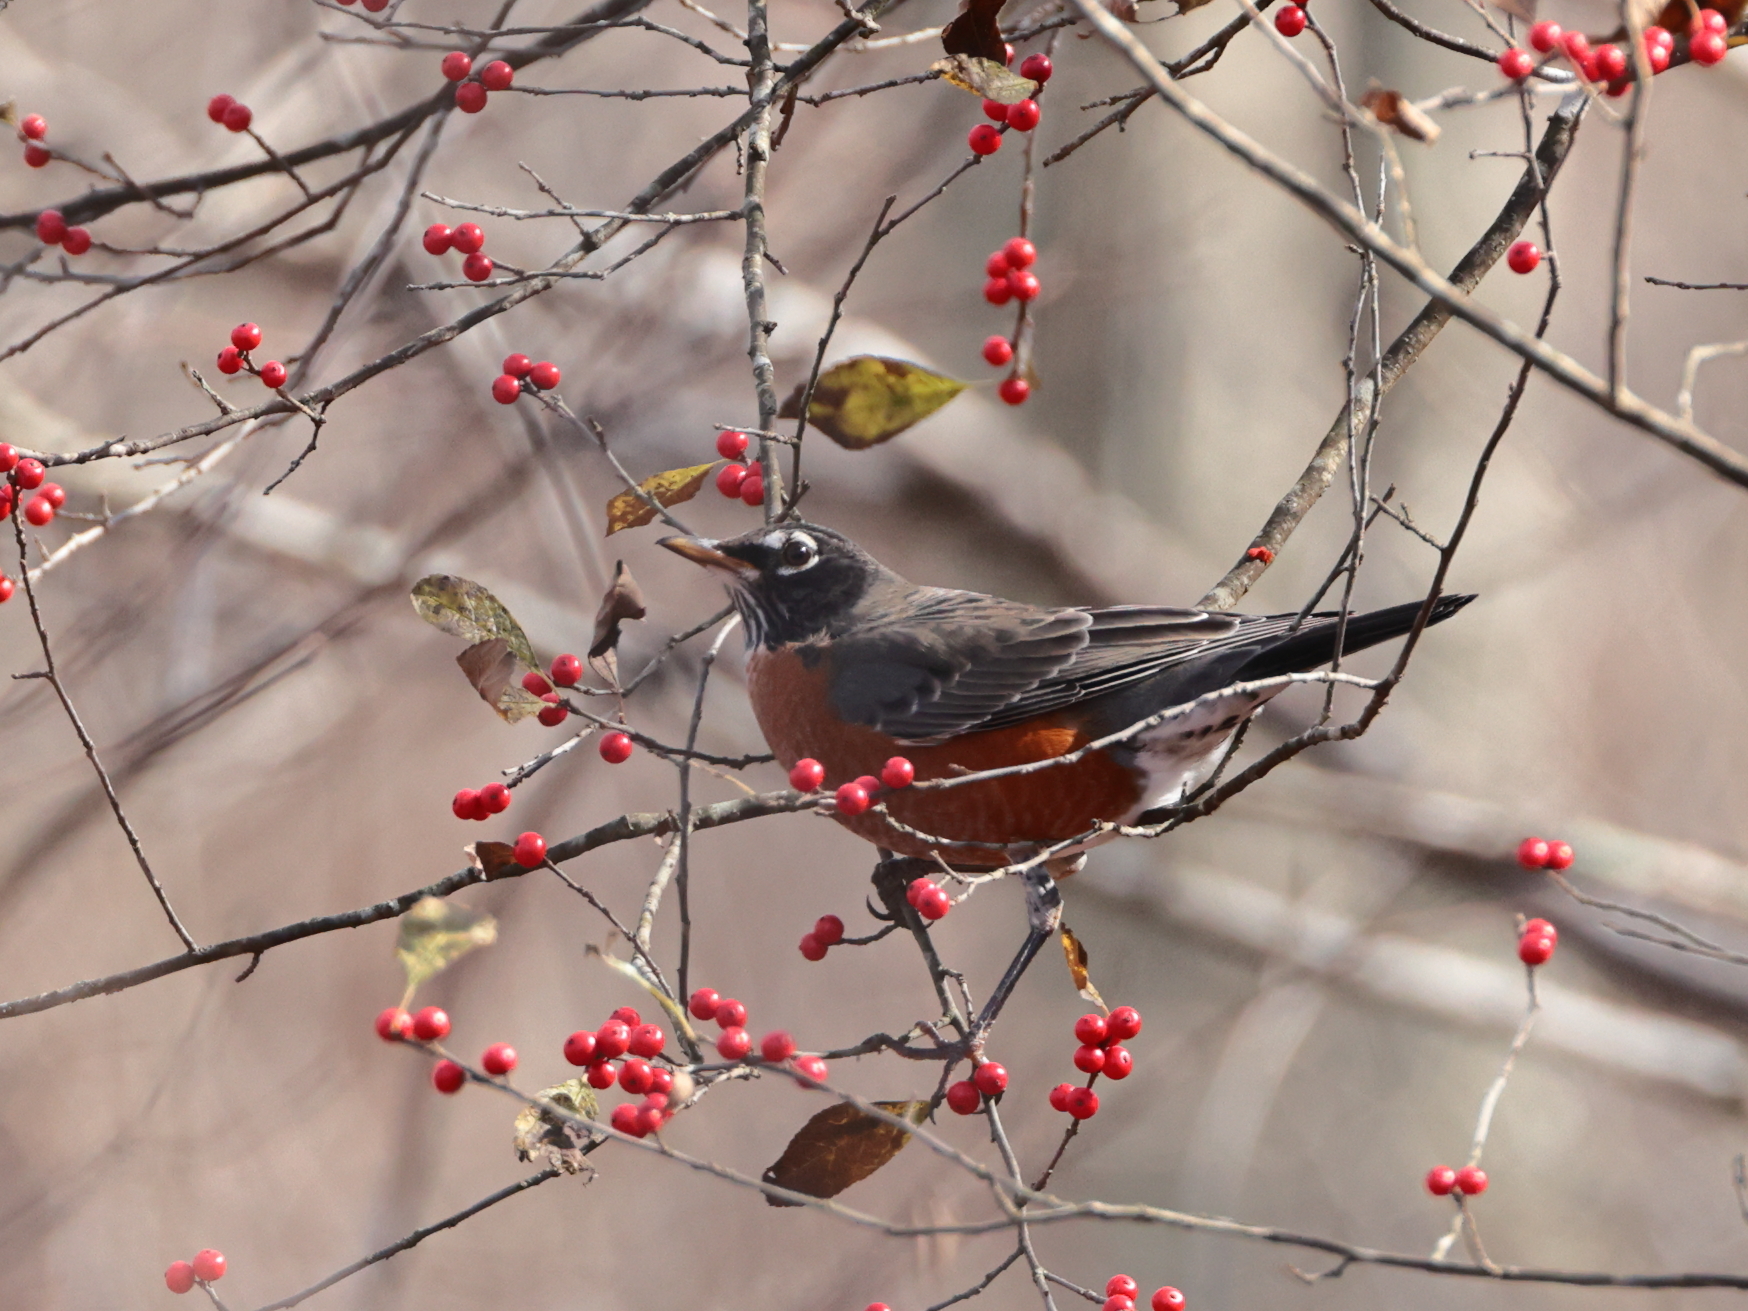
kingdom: Animalia
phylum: Chordata
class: Aves
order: Passeriformes
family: Turdidae
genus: Turdus
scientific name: Turdus migratorius
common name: American robin
